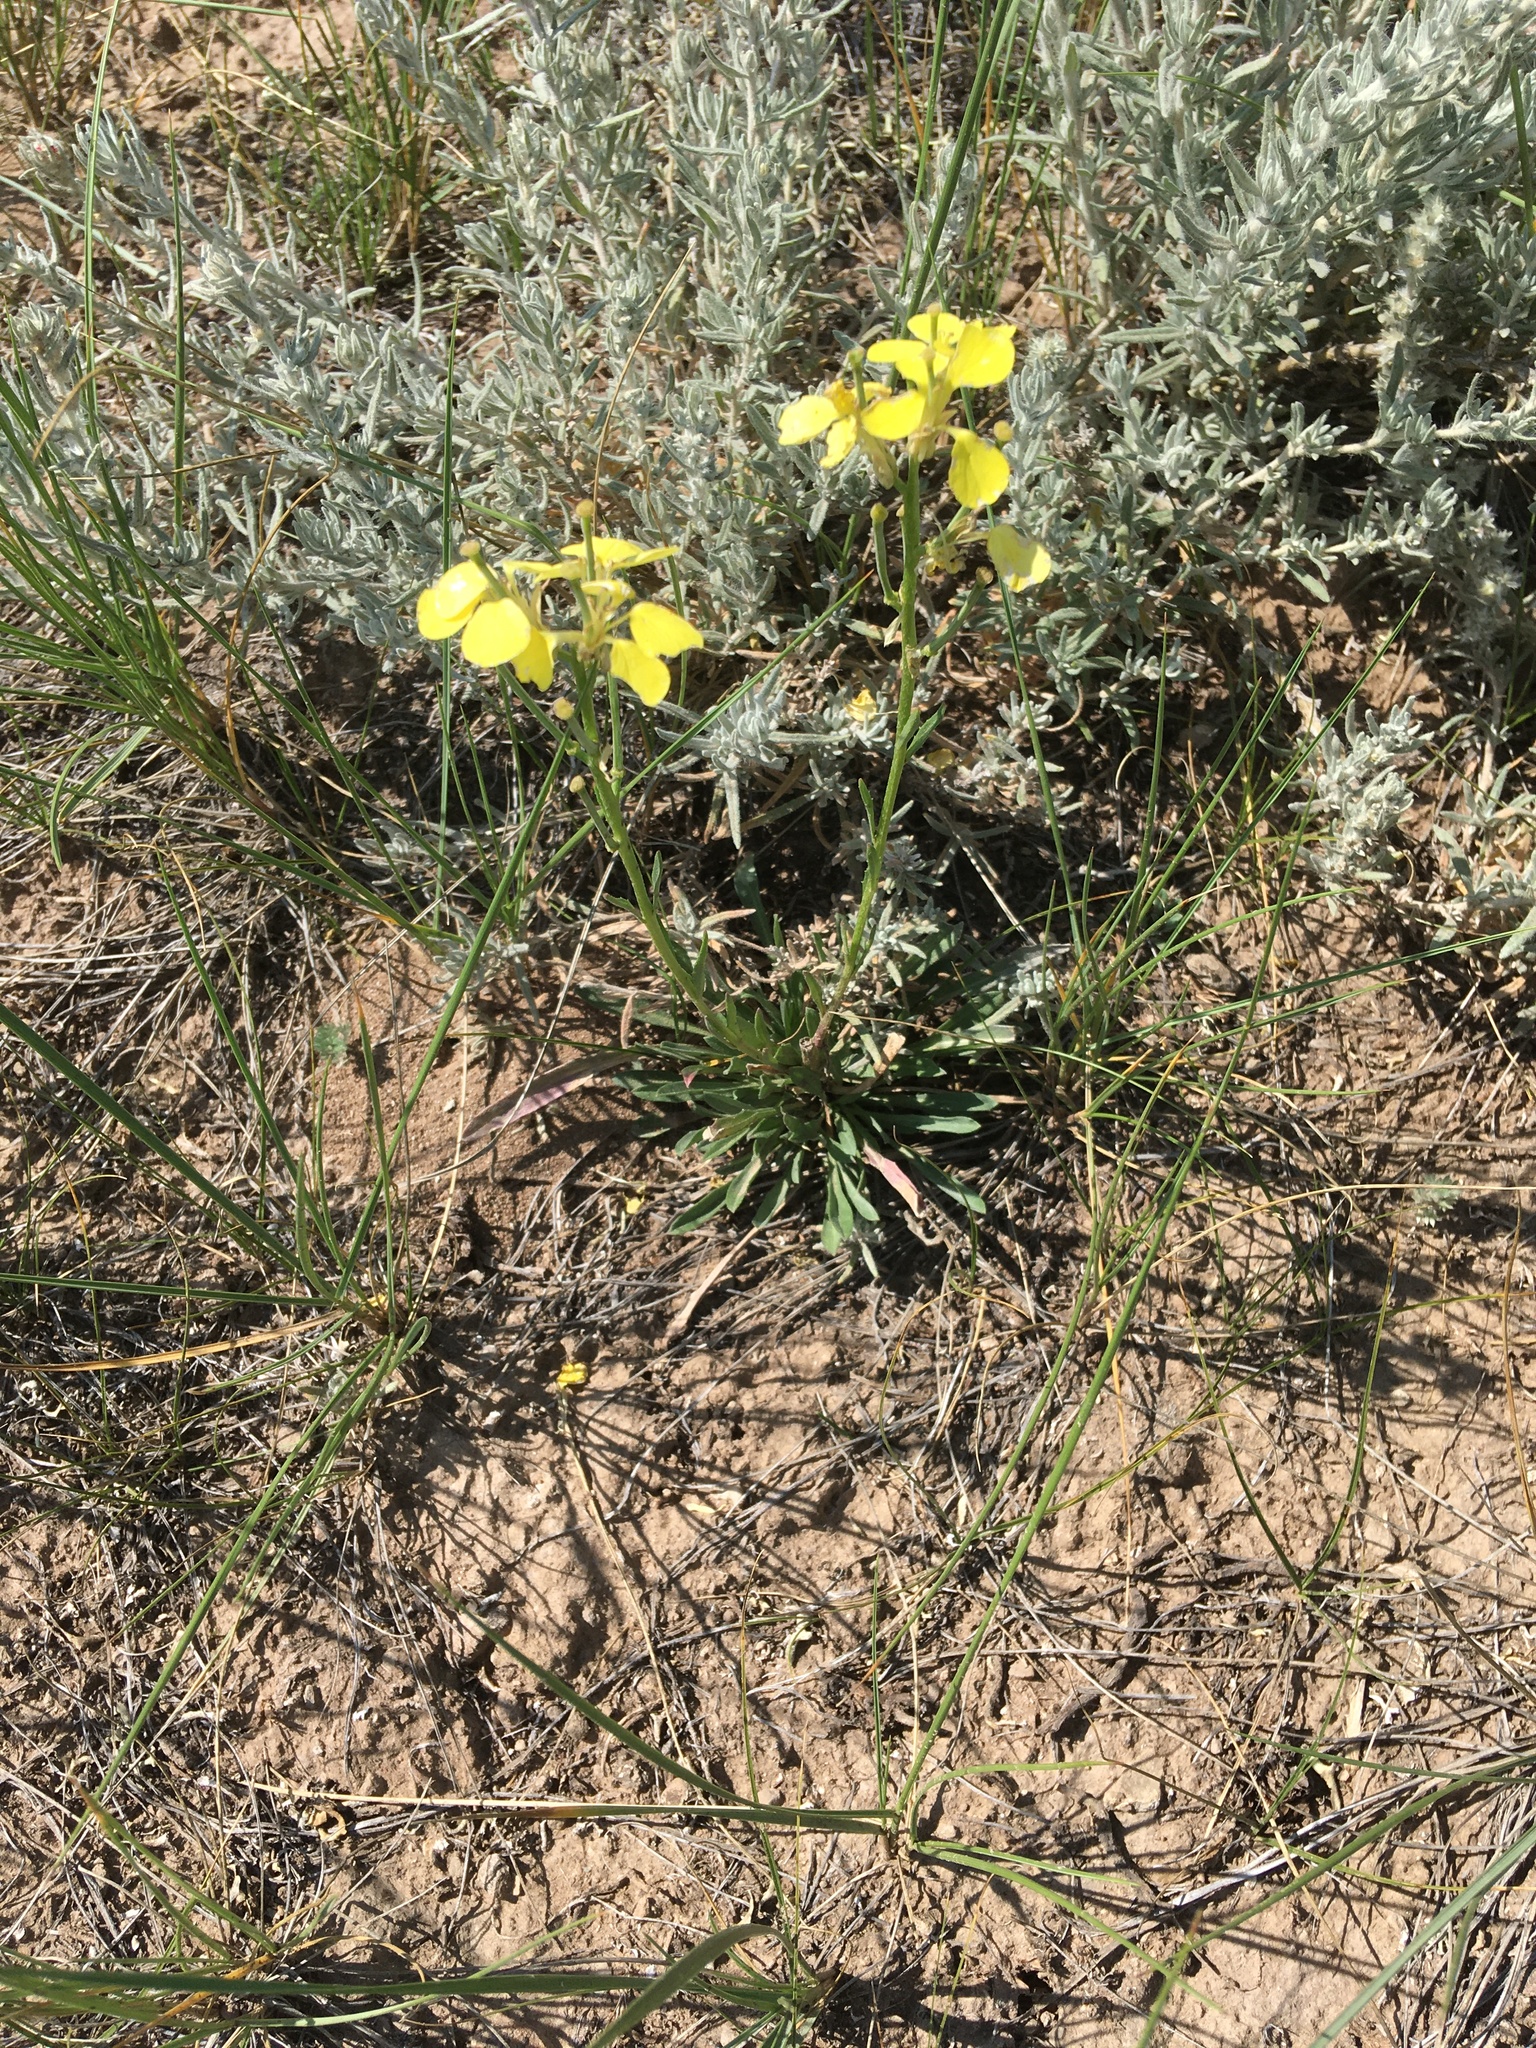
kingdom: Plantae
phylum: Tracheophyta
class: Magnoliopsida
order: Brassicales
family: Brassicaceae
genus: Erysimum
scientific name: Erysimum capitatum
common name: Western wallflower
